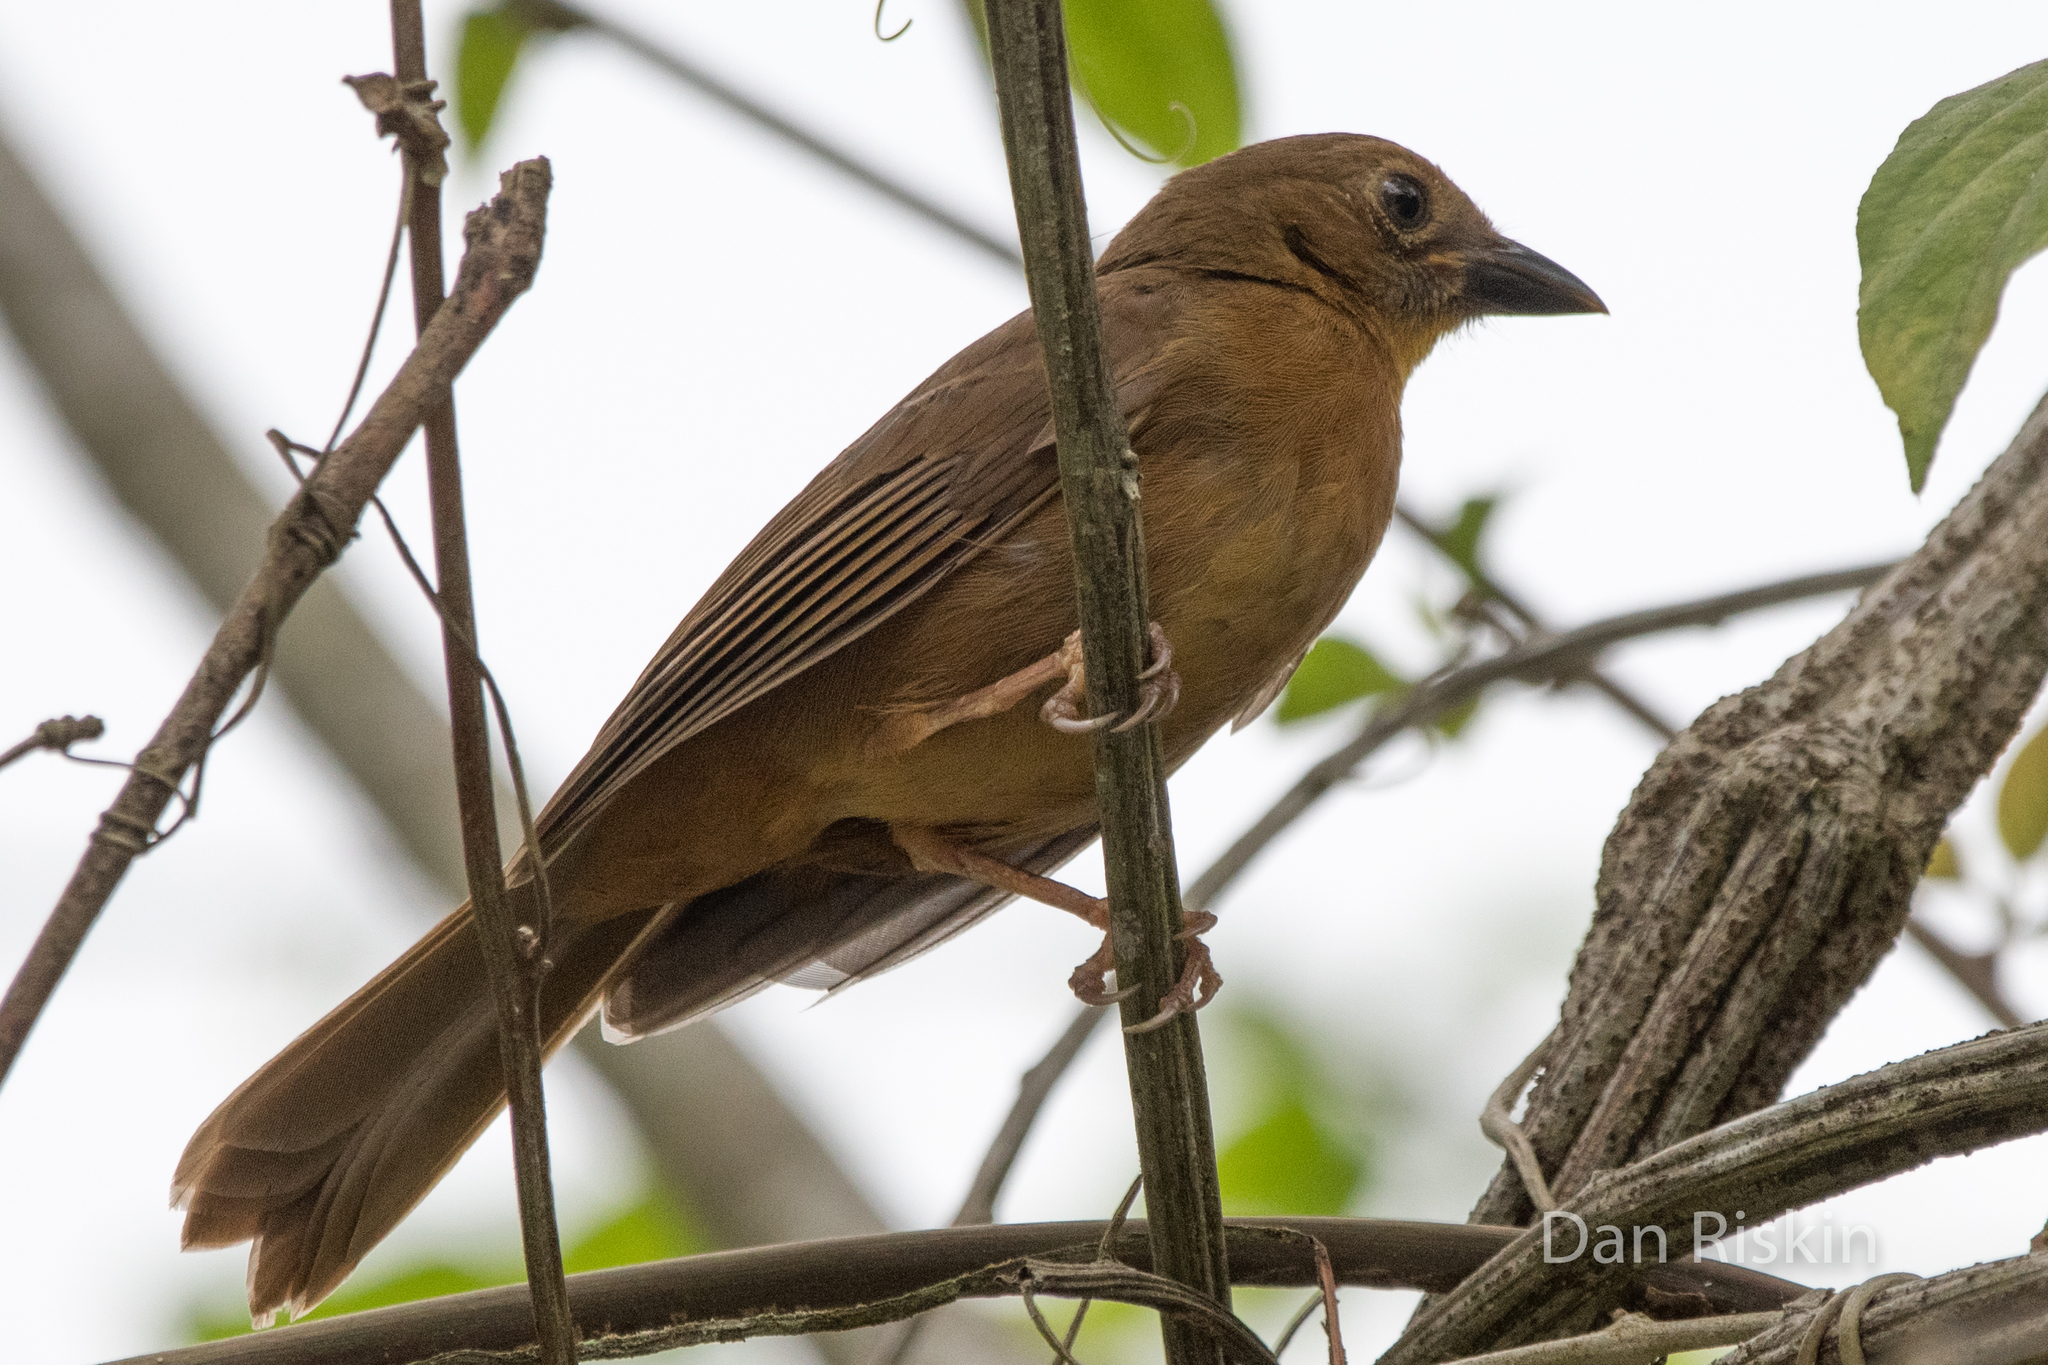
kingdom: Animalia
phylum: Chordata
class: Aves
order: Passeriformes
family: Cardinalidae
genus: Habia
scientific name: Habia fuscicauda
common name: Red-throated ant-tanager
